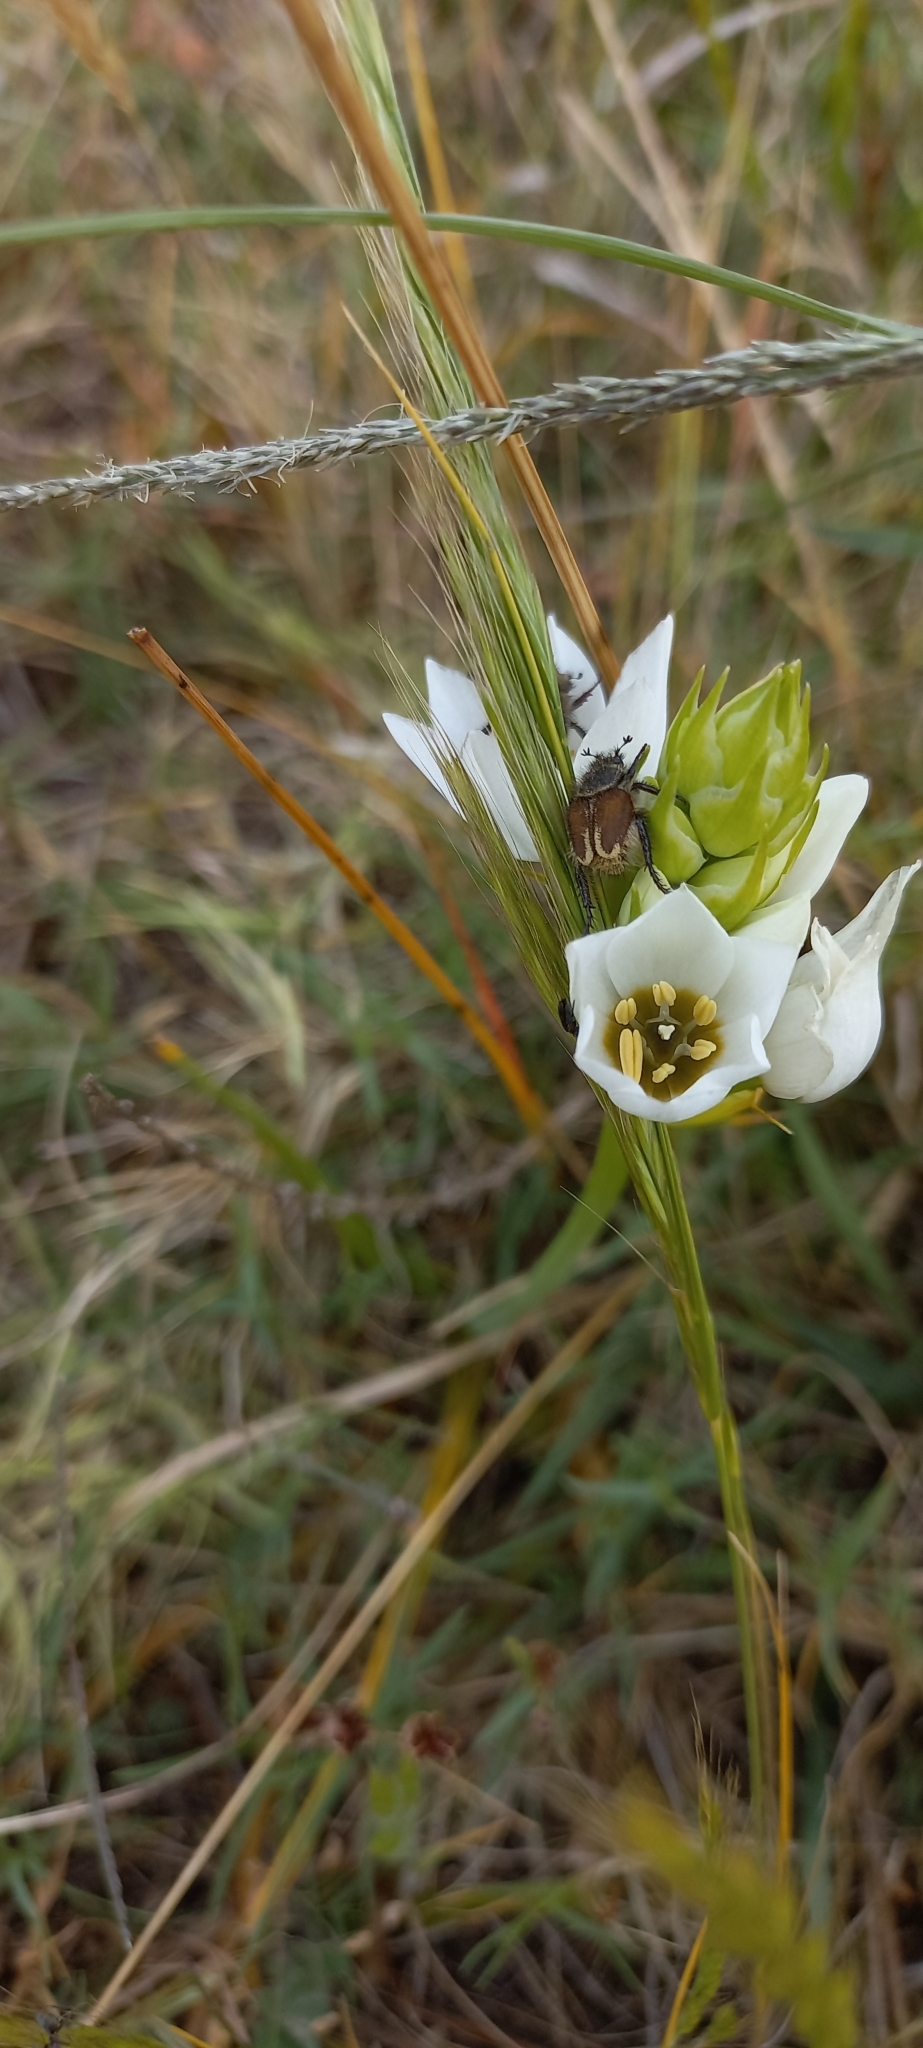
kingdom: Plantae
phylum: Tracheophyta
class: Liliopsida
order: Asparagales
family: Asparagaceae
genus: Ornithogalum
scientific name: Ornithogalum thyrsoides
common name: Chincherinchee
